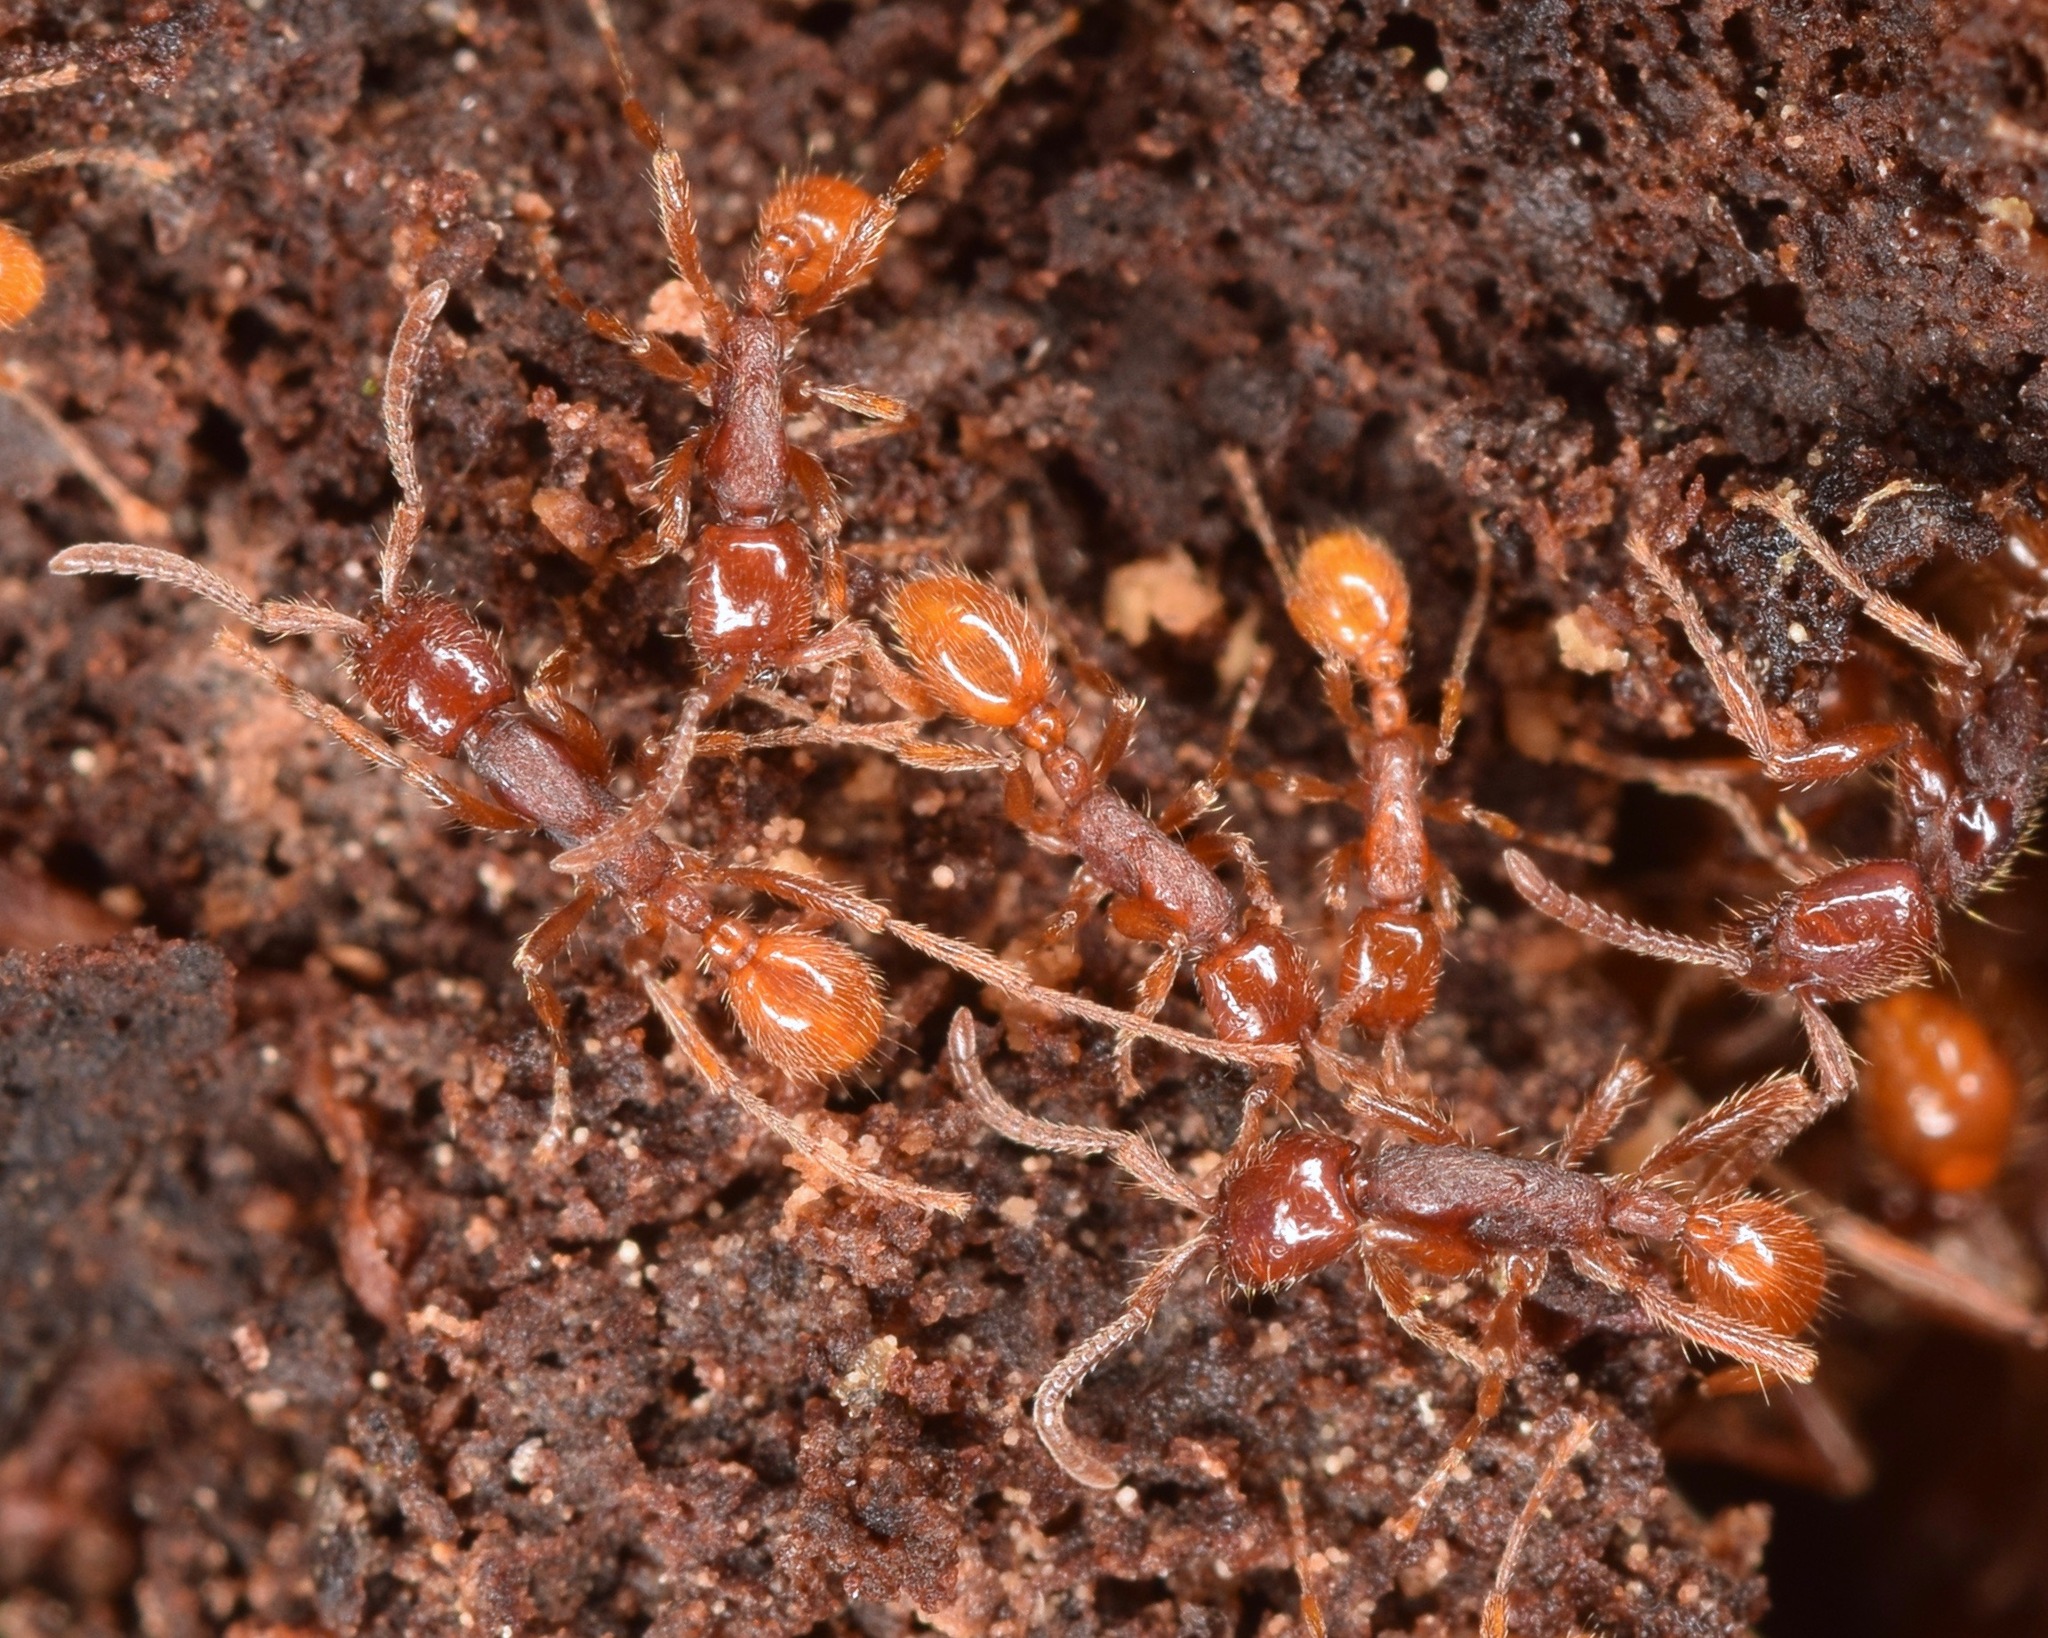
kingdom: Animalia
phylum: Arthropoda
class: Insecta
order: Hymenoptera
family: Formicidae
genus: Neivamyrmex
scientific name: Neivamyrmex opacithorax
